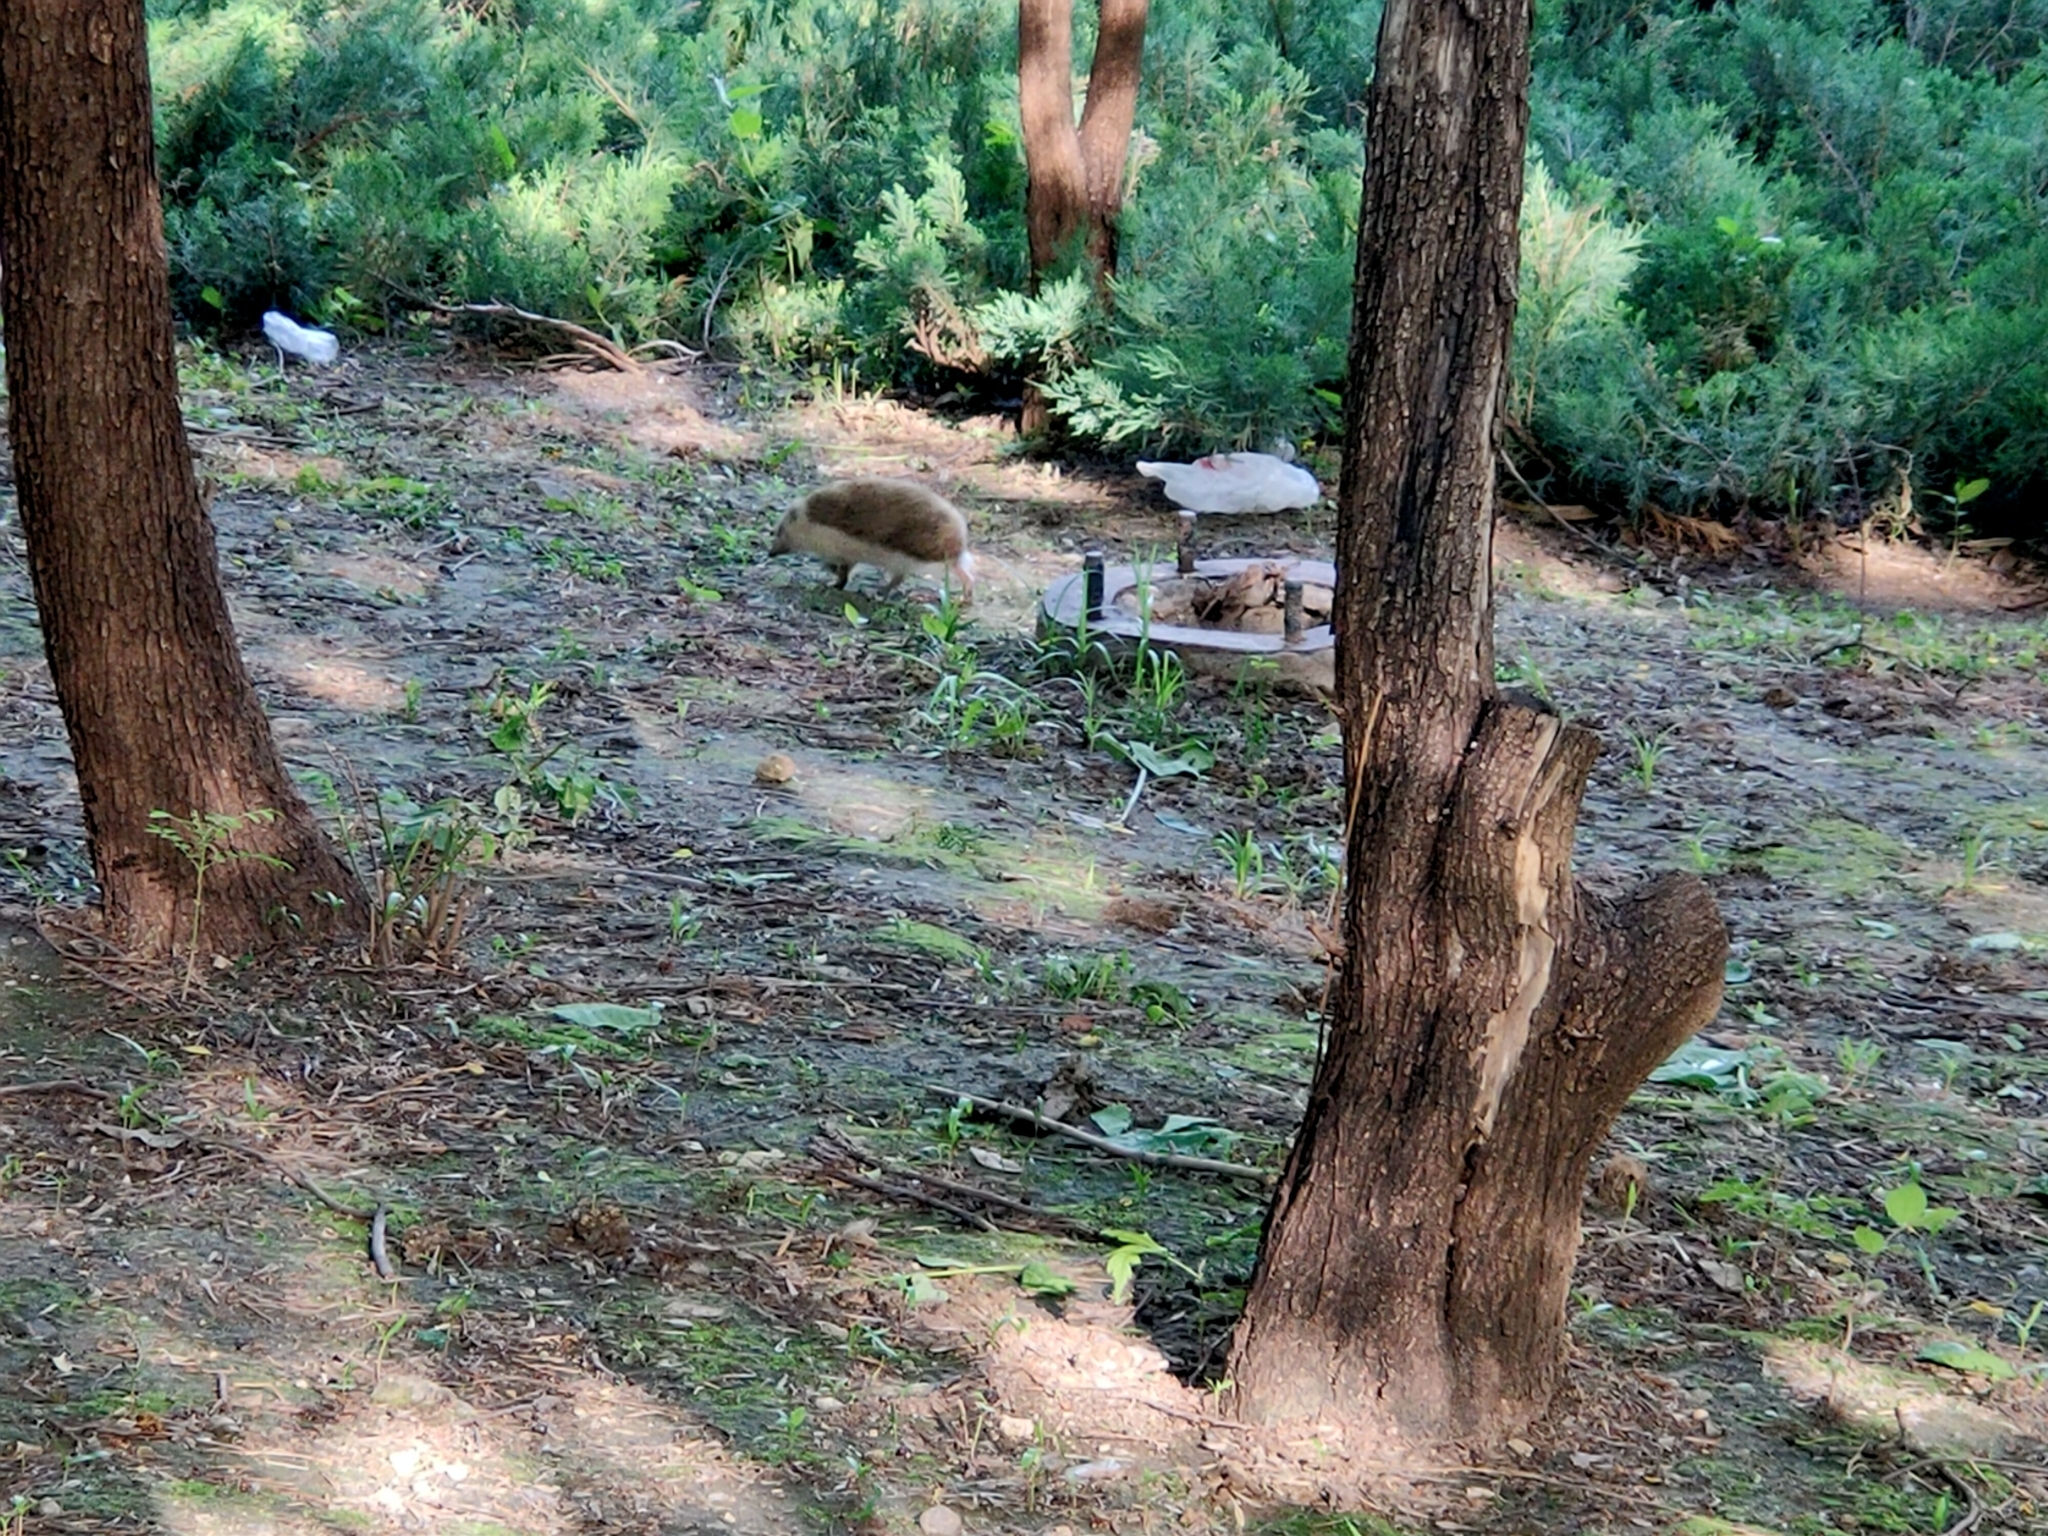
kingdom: Animalia
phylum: Chordata
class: Mammalia
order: Erinaceomorpha
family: Erinaceidae
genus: Erinaceus
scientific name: Erinaceus amurensis
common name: Amur hedgehog
